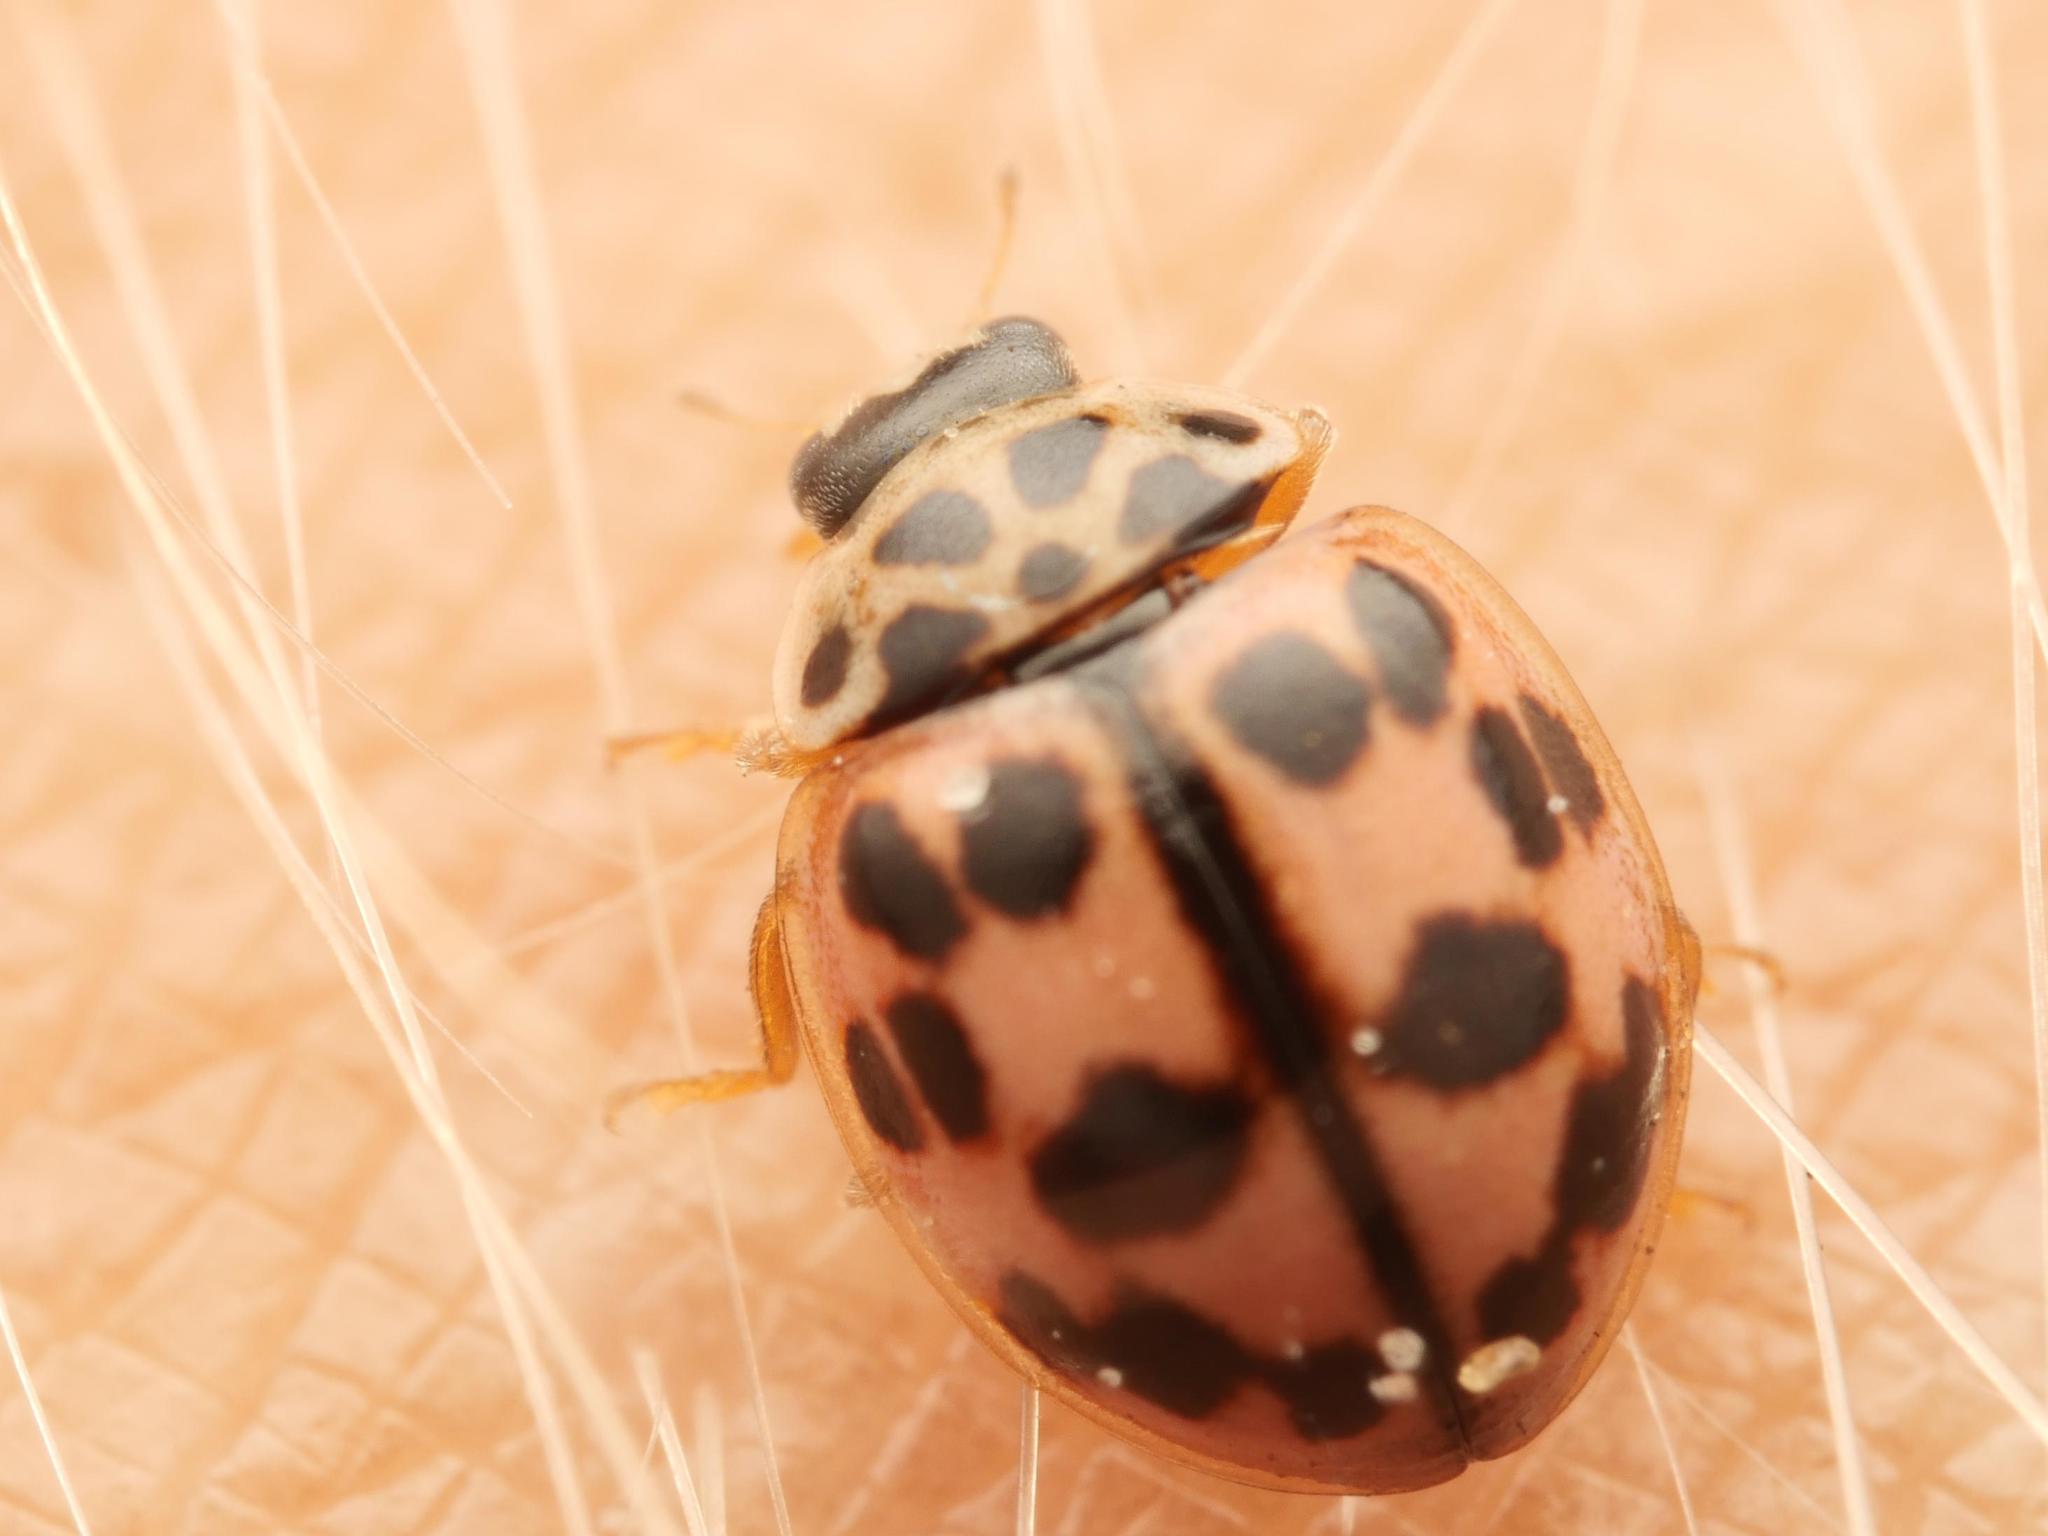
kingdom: Animalia
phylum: Arthropoda
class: Insecta
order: Coleoptera
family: Coccinellidae
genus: Oenopia
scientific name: Oenopia conglobata
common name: Ladybird beetle
